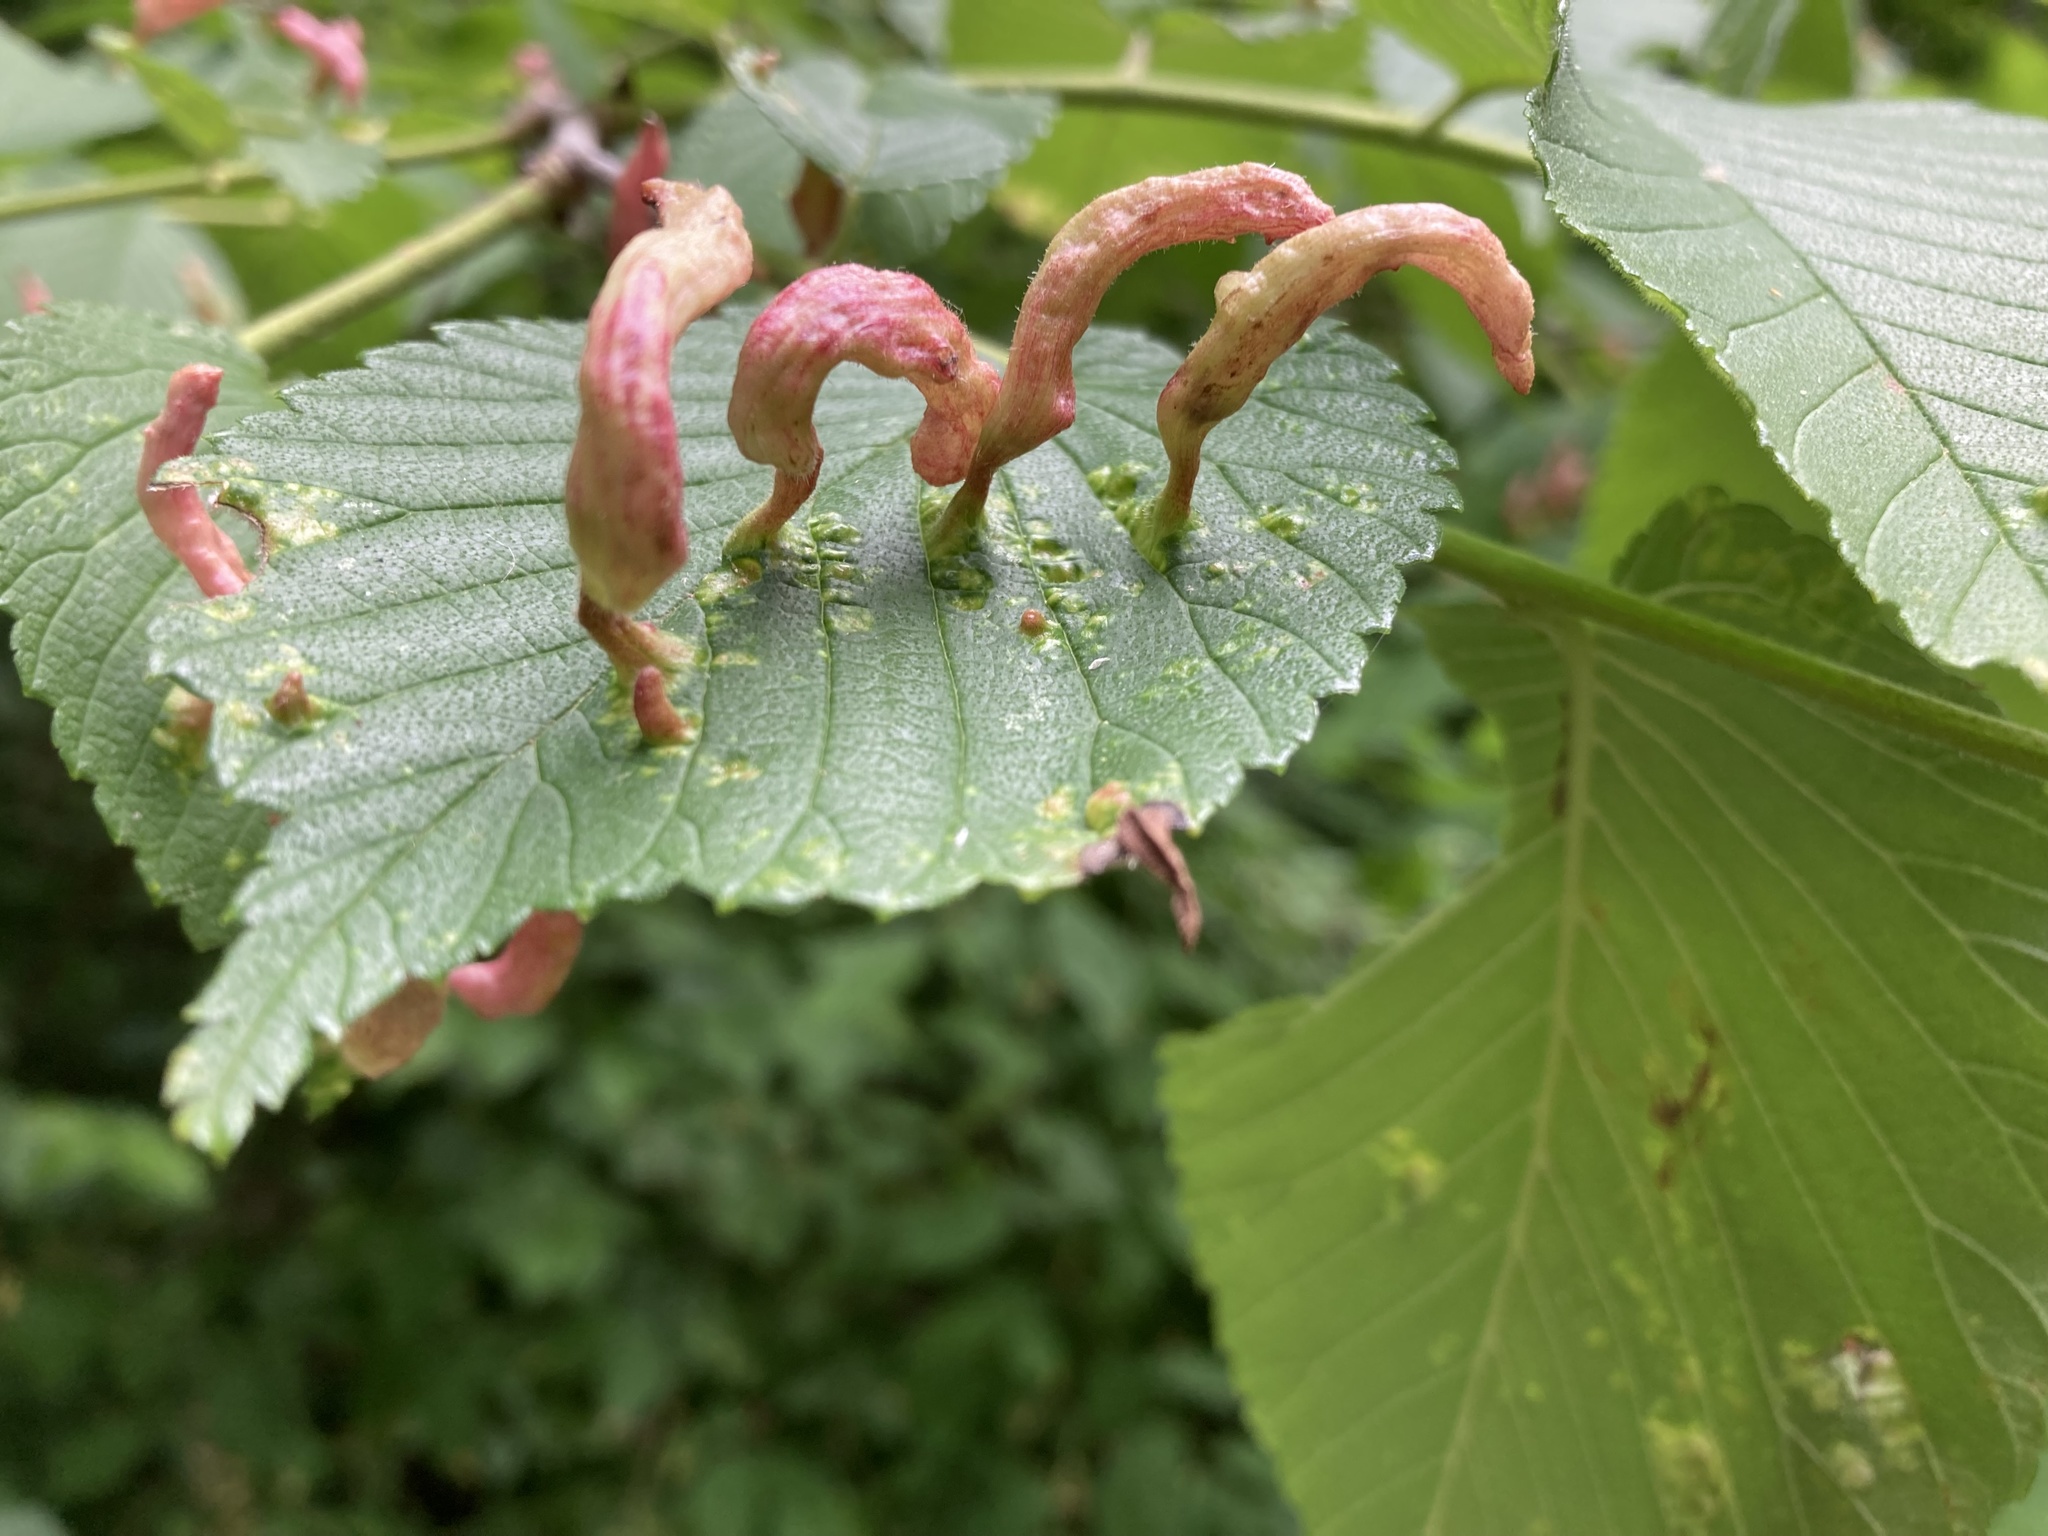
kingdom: Animalia
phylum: Arthropoda
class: Insecta
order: Hemiptera
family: Aphididae
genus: Tetraneura
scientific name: Tetraneura nigriabdominalis
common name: Aphid
